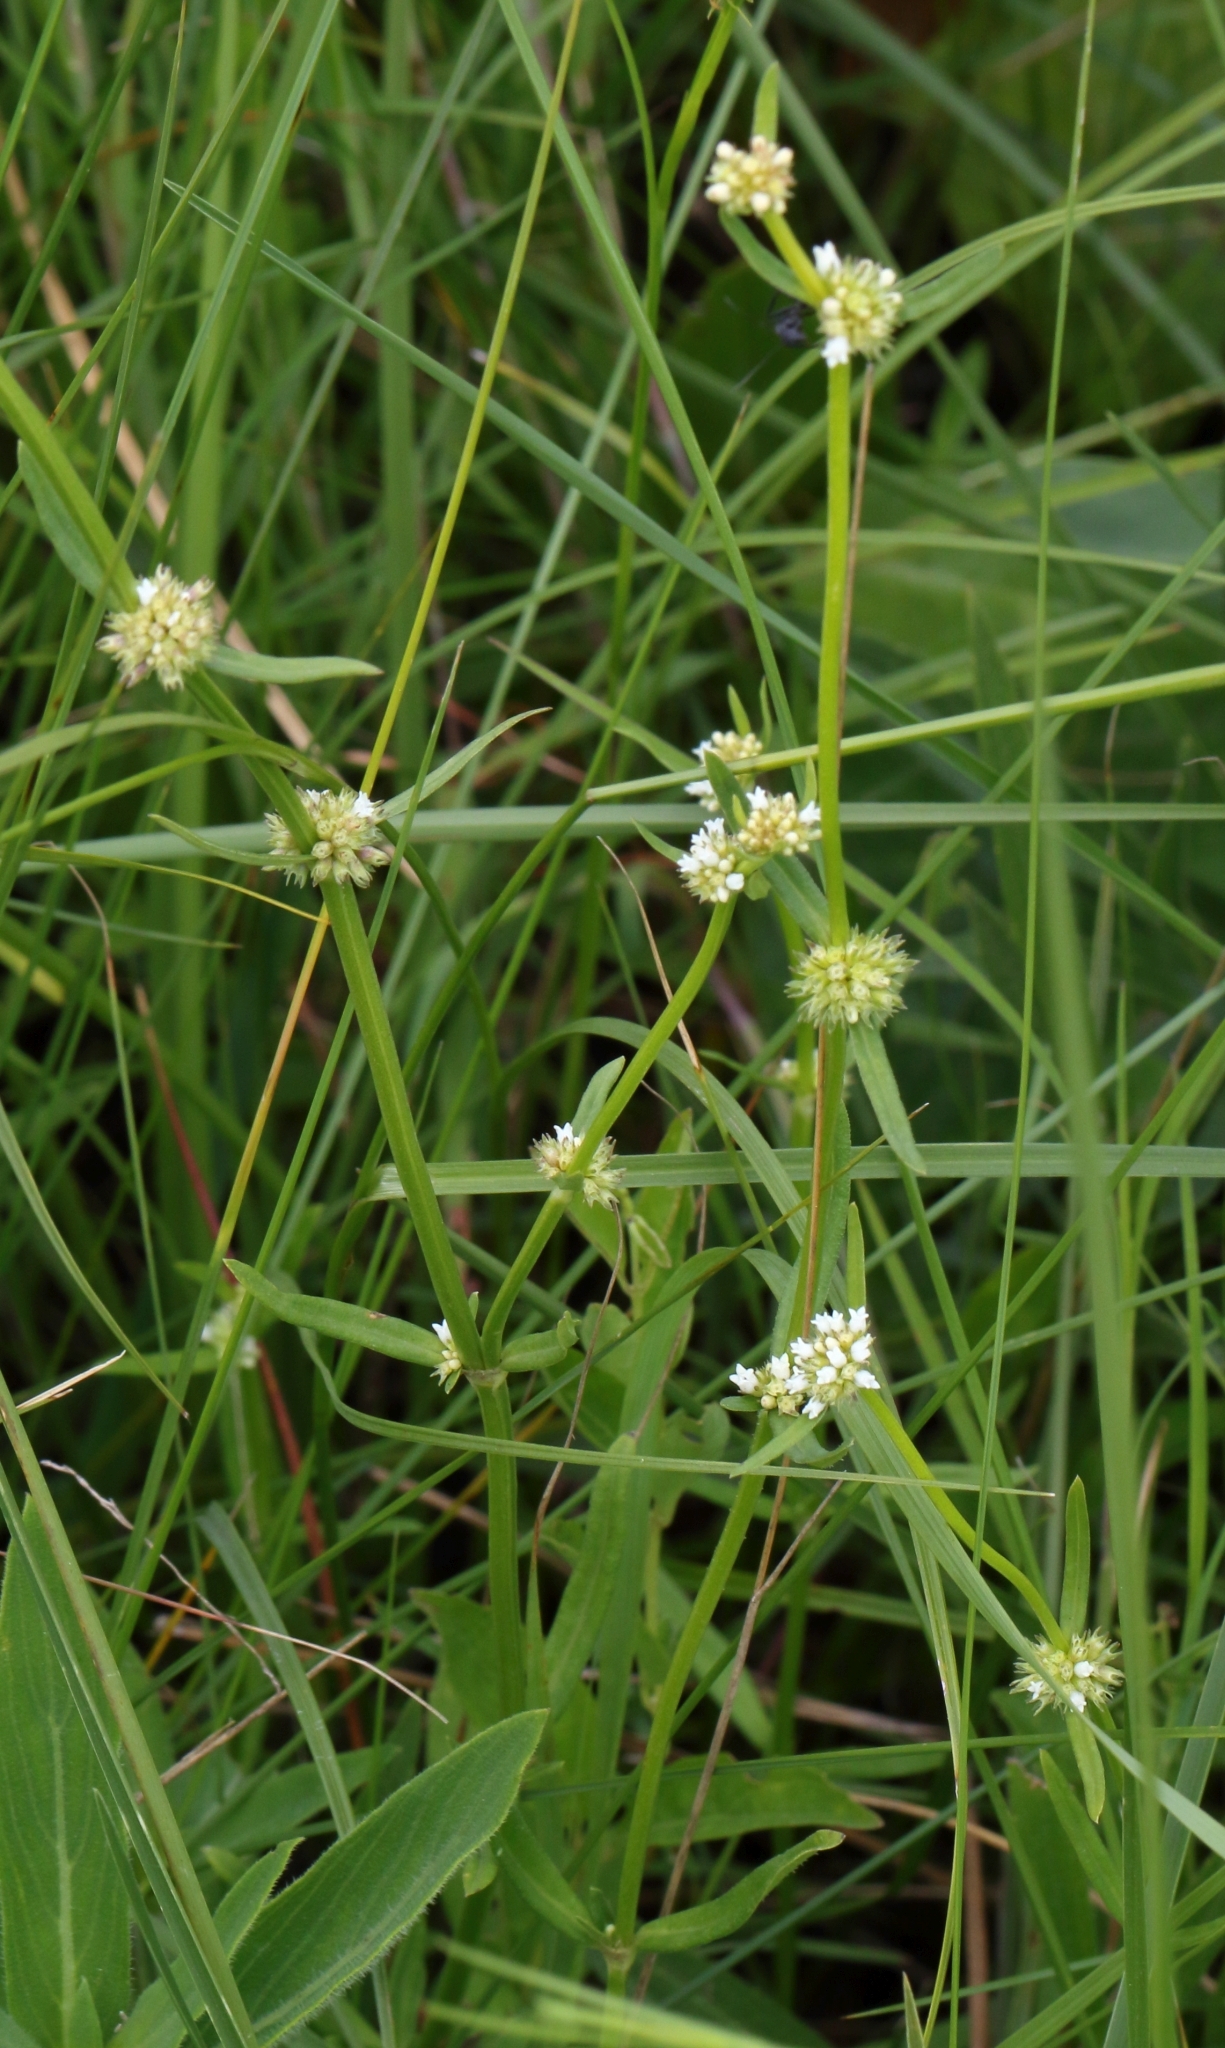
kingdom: Plantae
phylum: Tracheophyta
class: Magnoliopsida
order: Gentianales
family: Rubiaceae
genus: Spermacoce
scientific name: Spermacoce natalensis
